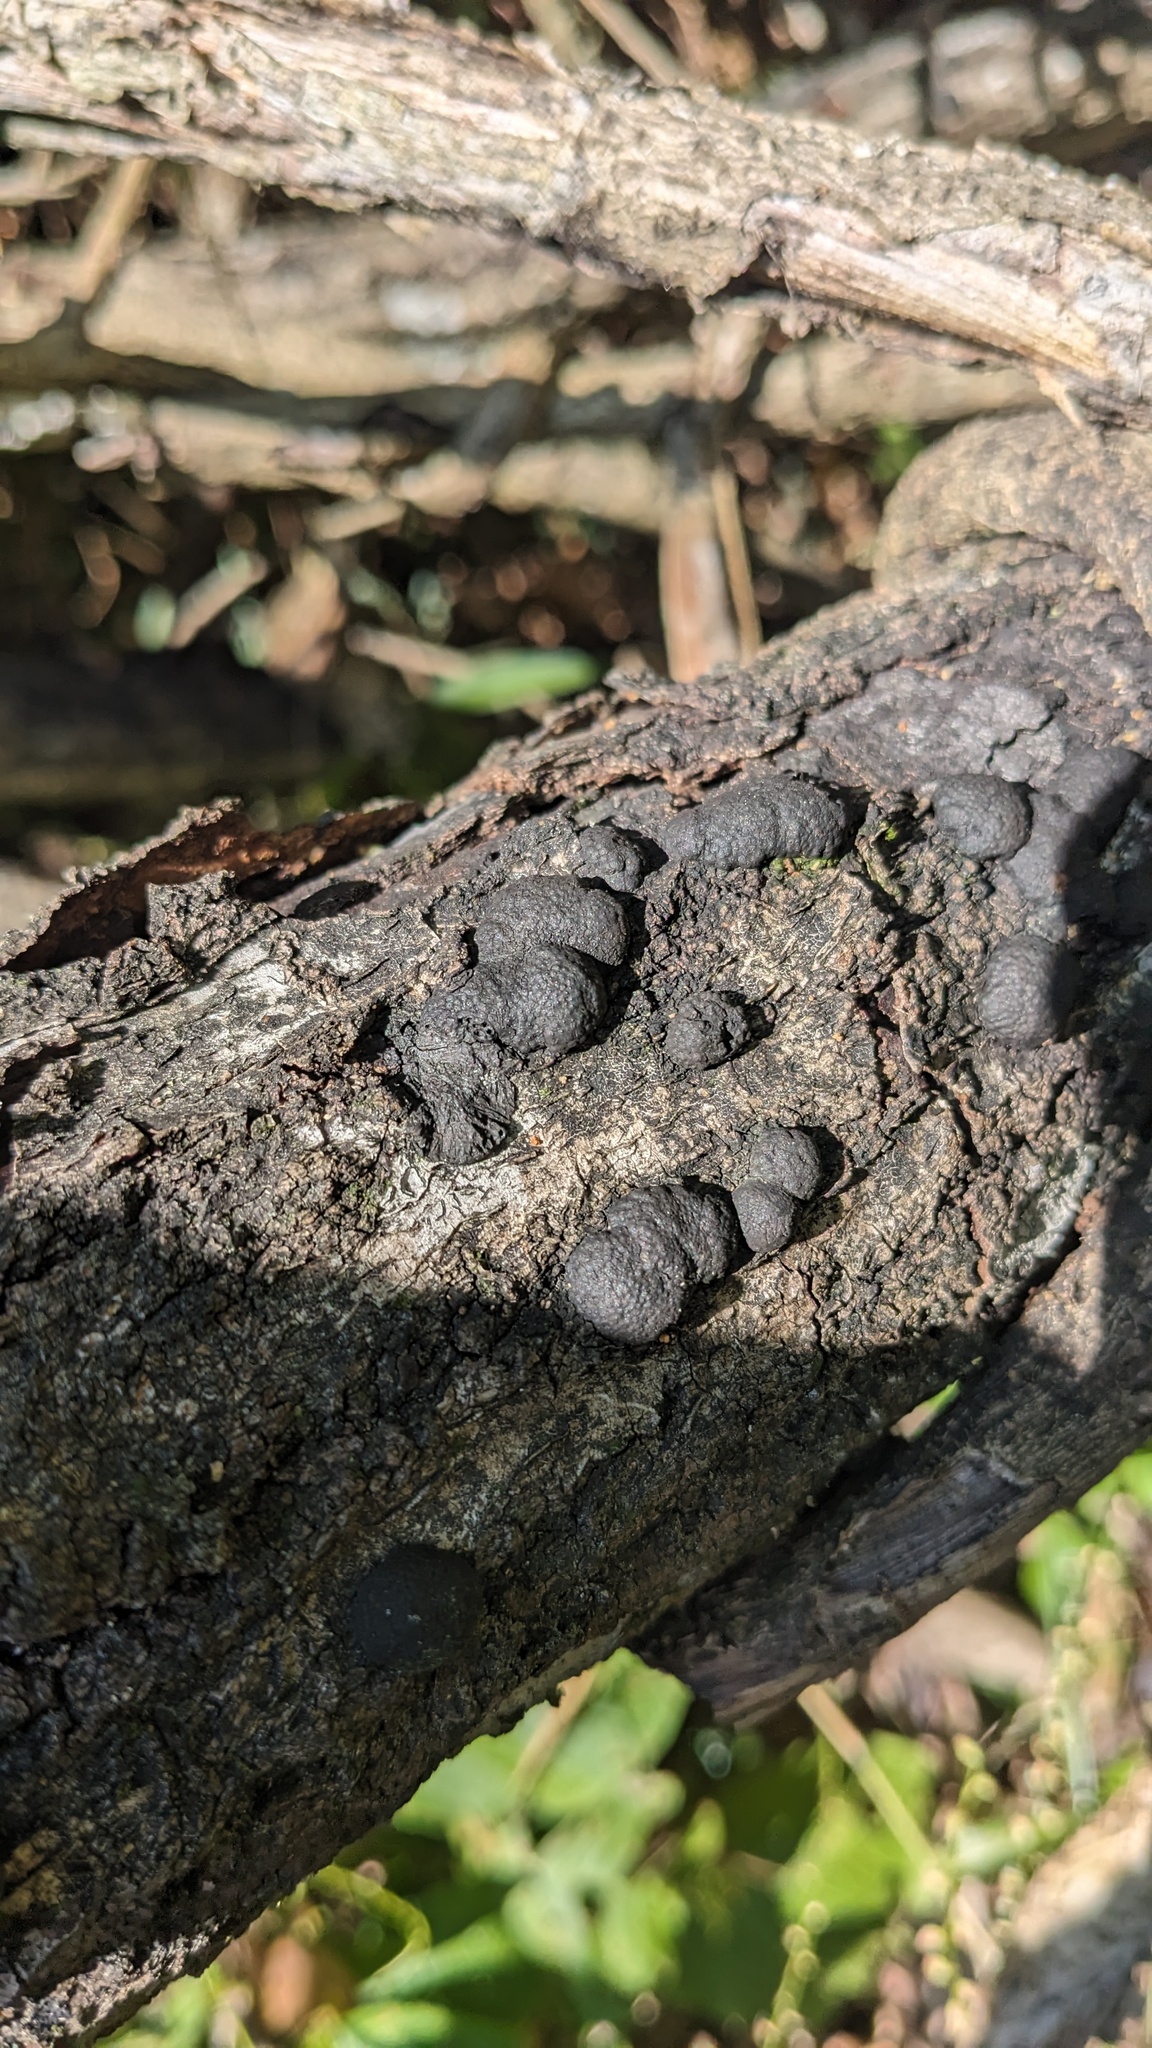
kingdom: Fungi
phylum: Ascomycota
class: Sordariomycetes
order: Xylariales
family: Hypoxylaceae
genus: Annulohypoxylon
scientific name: Annulohypoxylon truncatum
